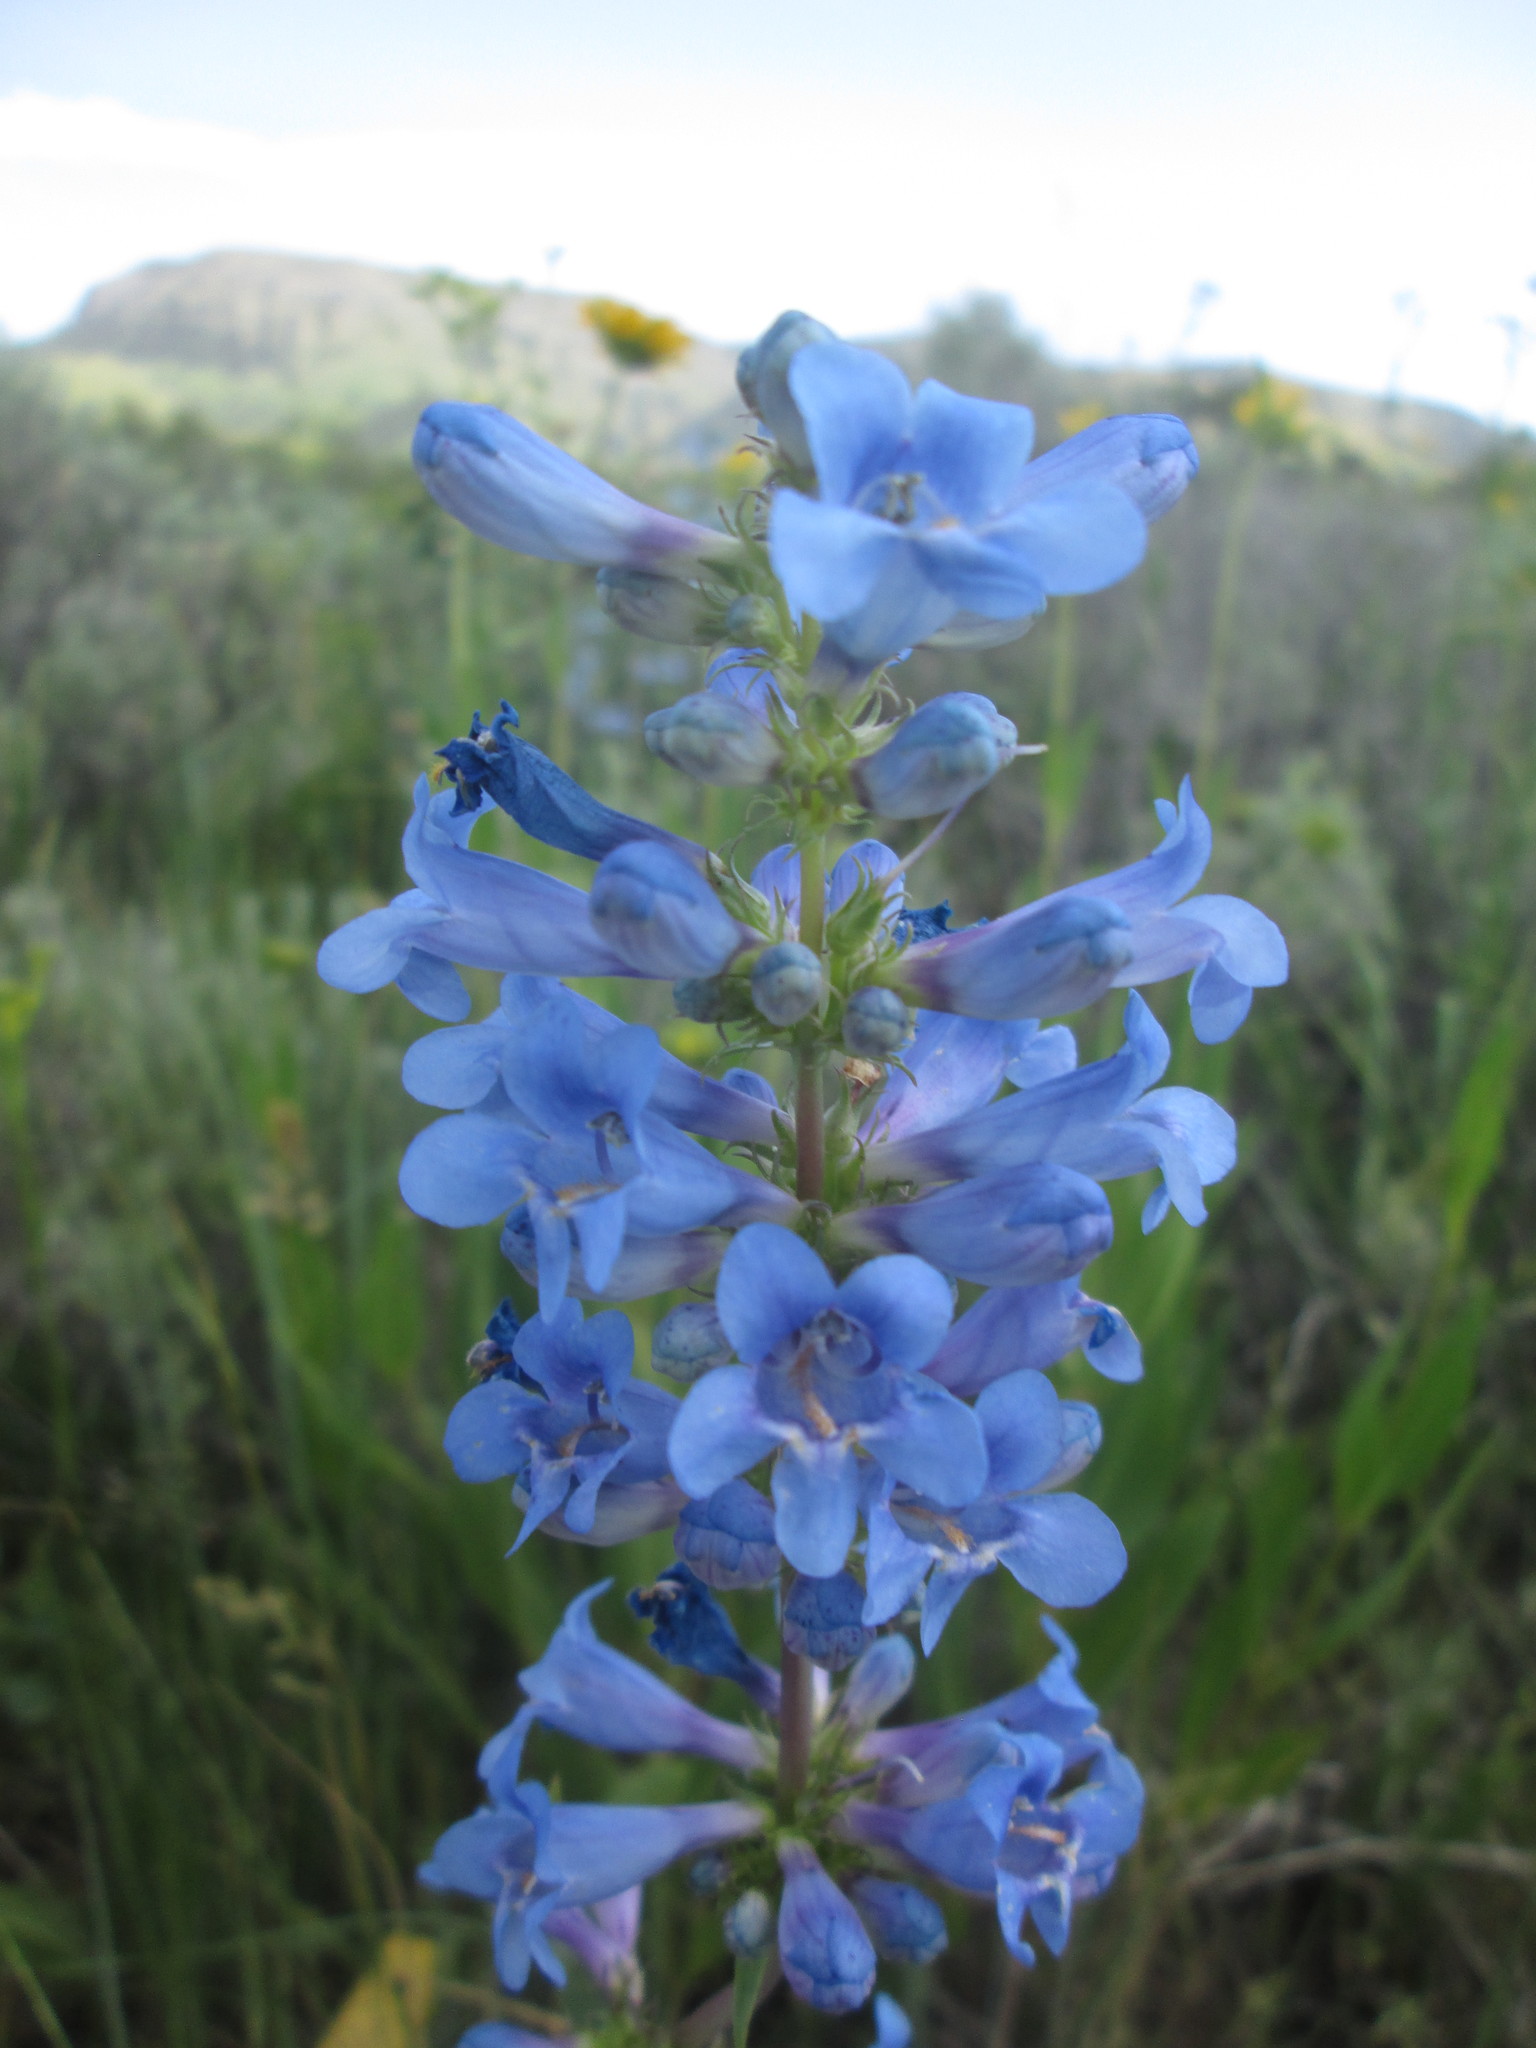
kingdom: Plantae
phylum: Tracheophyta
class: Magnoliopsida
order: Lamiales
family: Plantaginaceae
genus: Penstemon
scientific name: Penstemon cyananthus
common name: Wasatch penstemon
